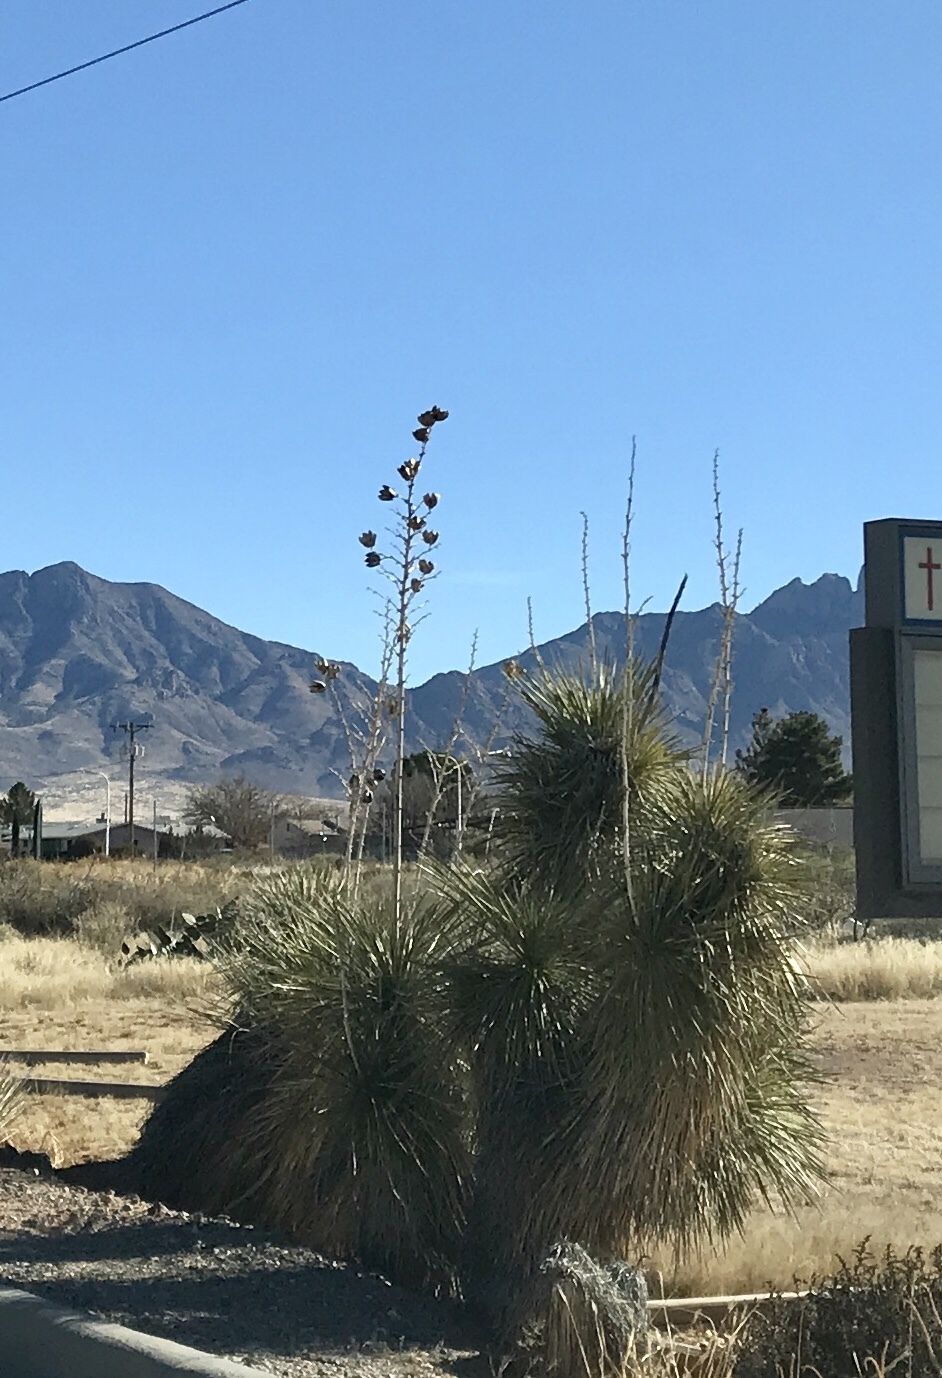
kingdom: Plantae
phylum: Tracheophyta
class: Liliopsida
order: Asparagales
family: Asparagaceae
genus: Yucca
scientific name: Yucca elata
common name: Palmella
